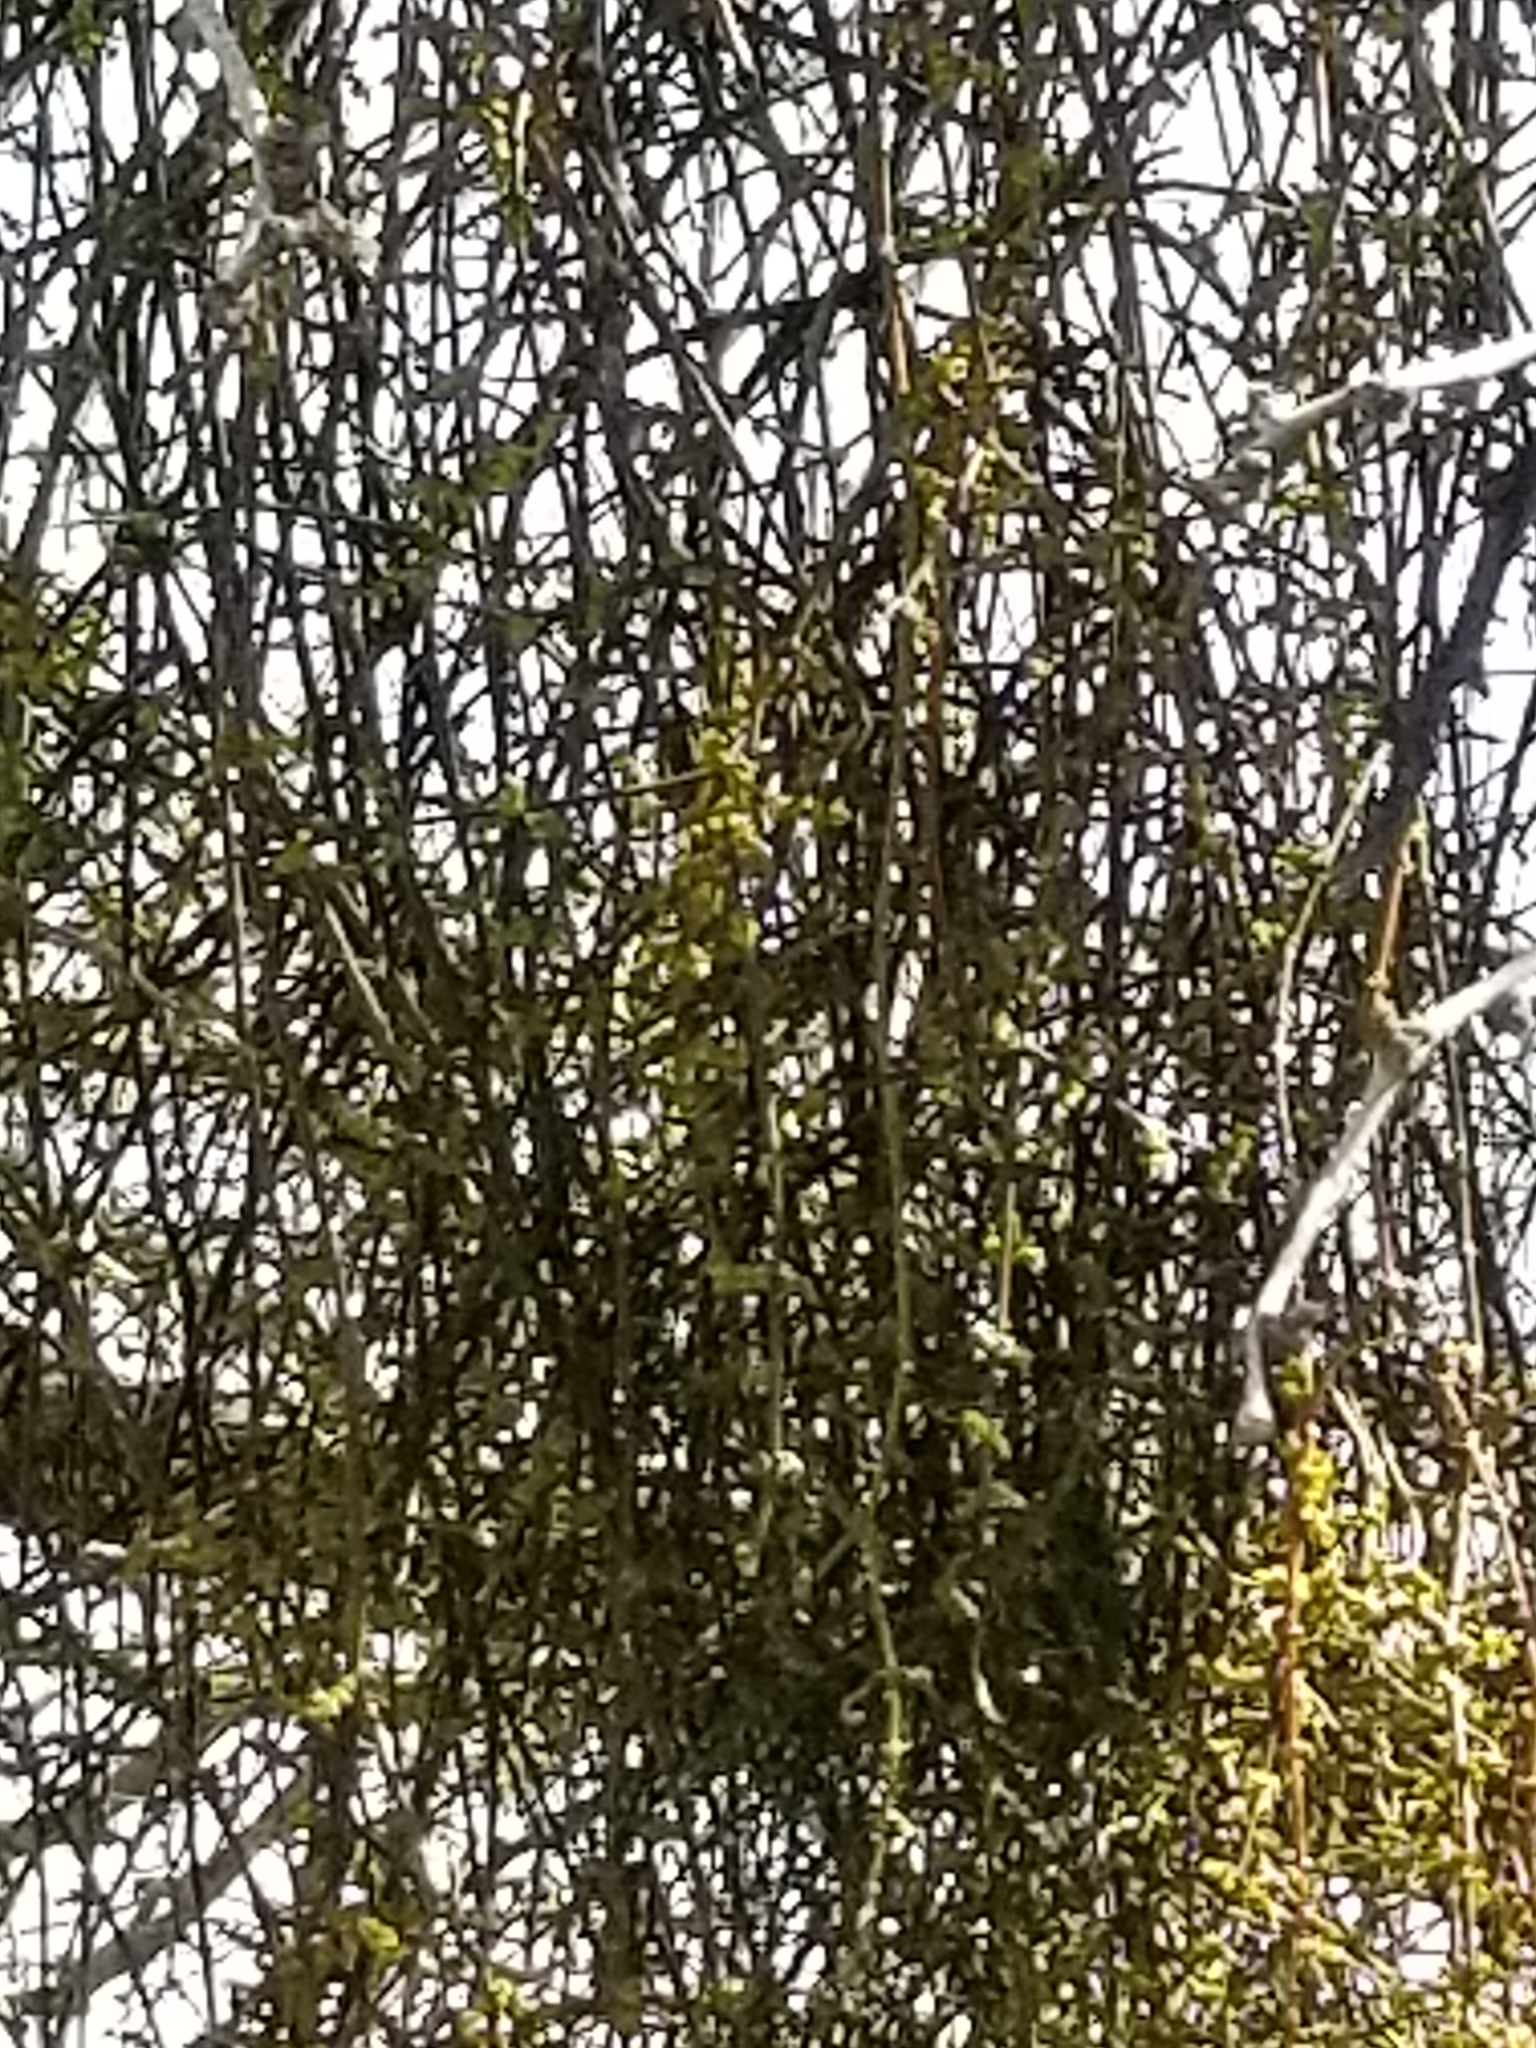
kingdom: Plantae
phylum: Tracheophyta
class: Magnoliopsida
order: Santalales
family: Viscaceae
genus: Phoradendron
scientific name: Phoradendron californicum
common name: Acacia mistletoe
